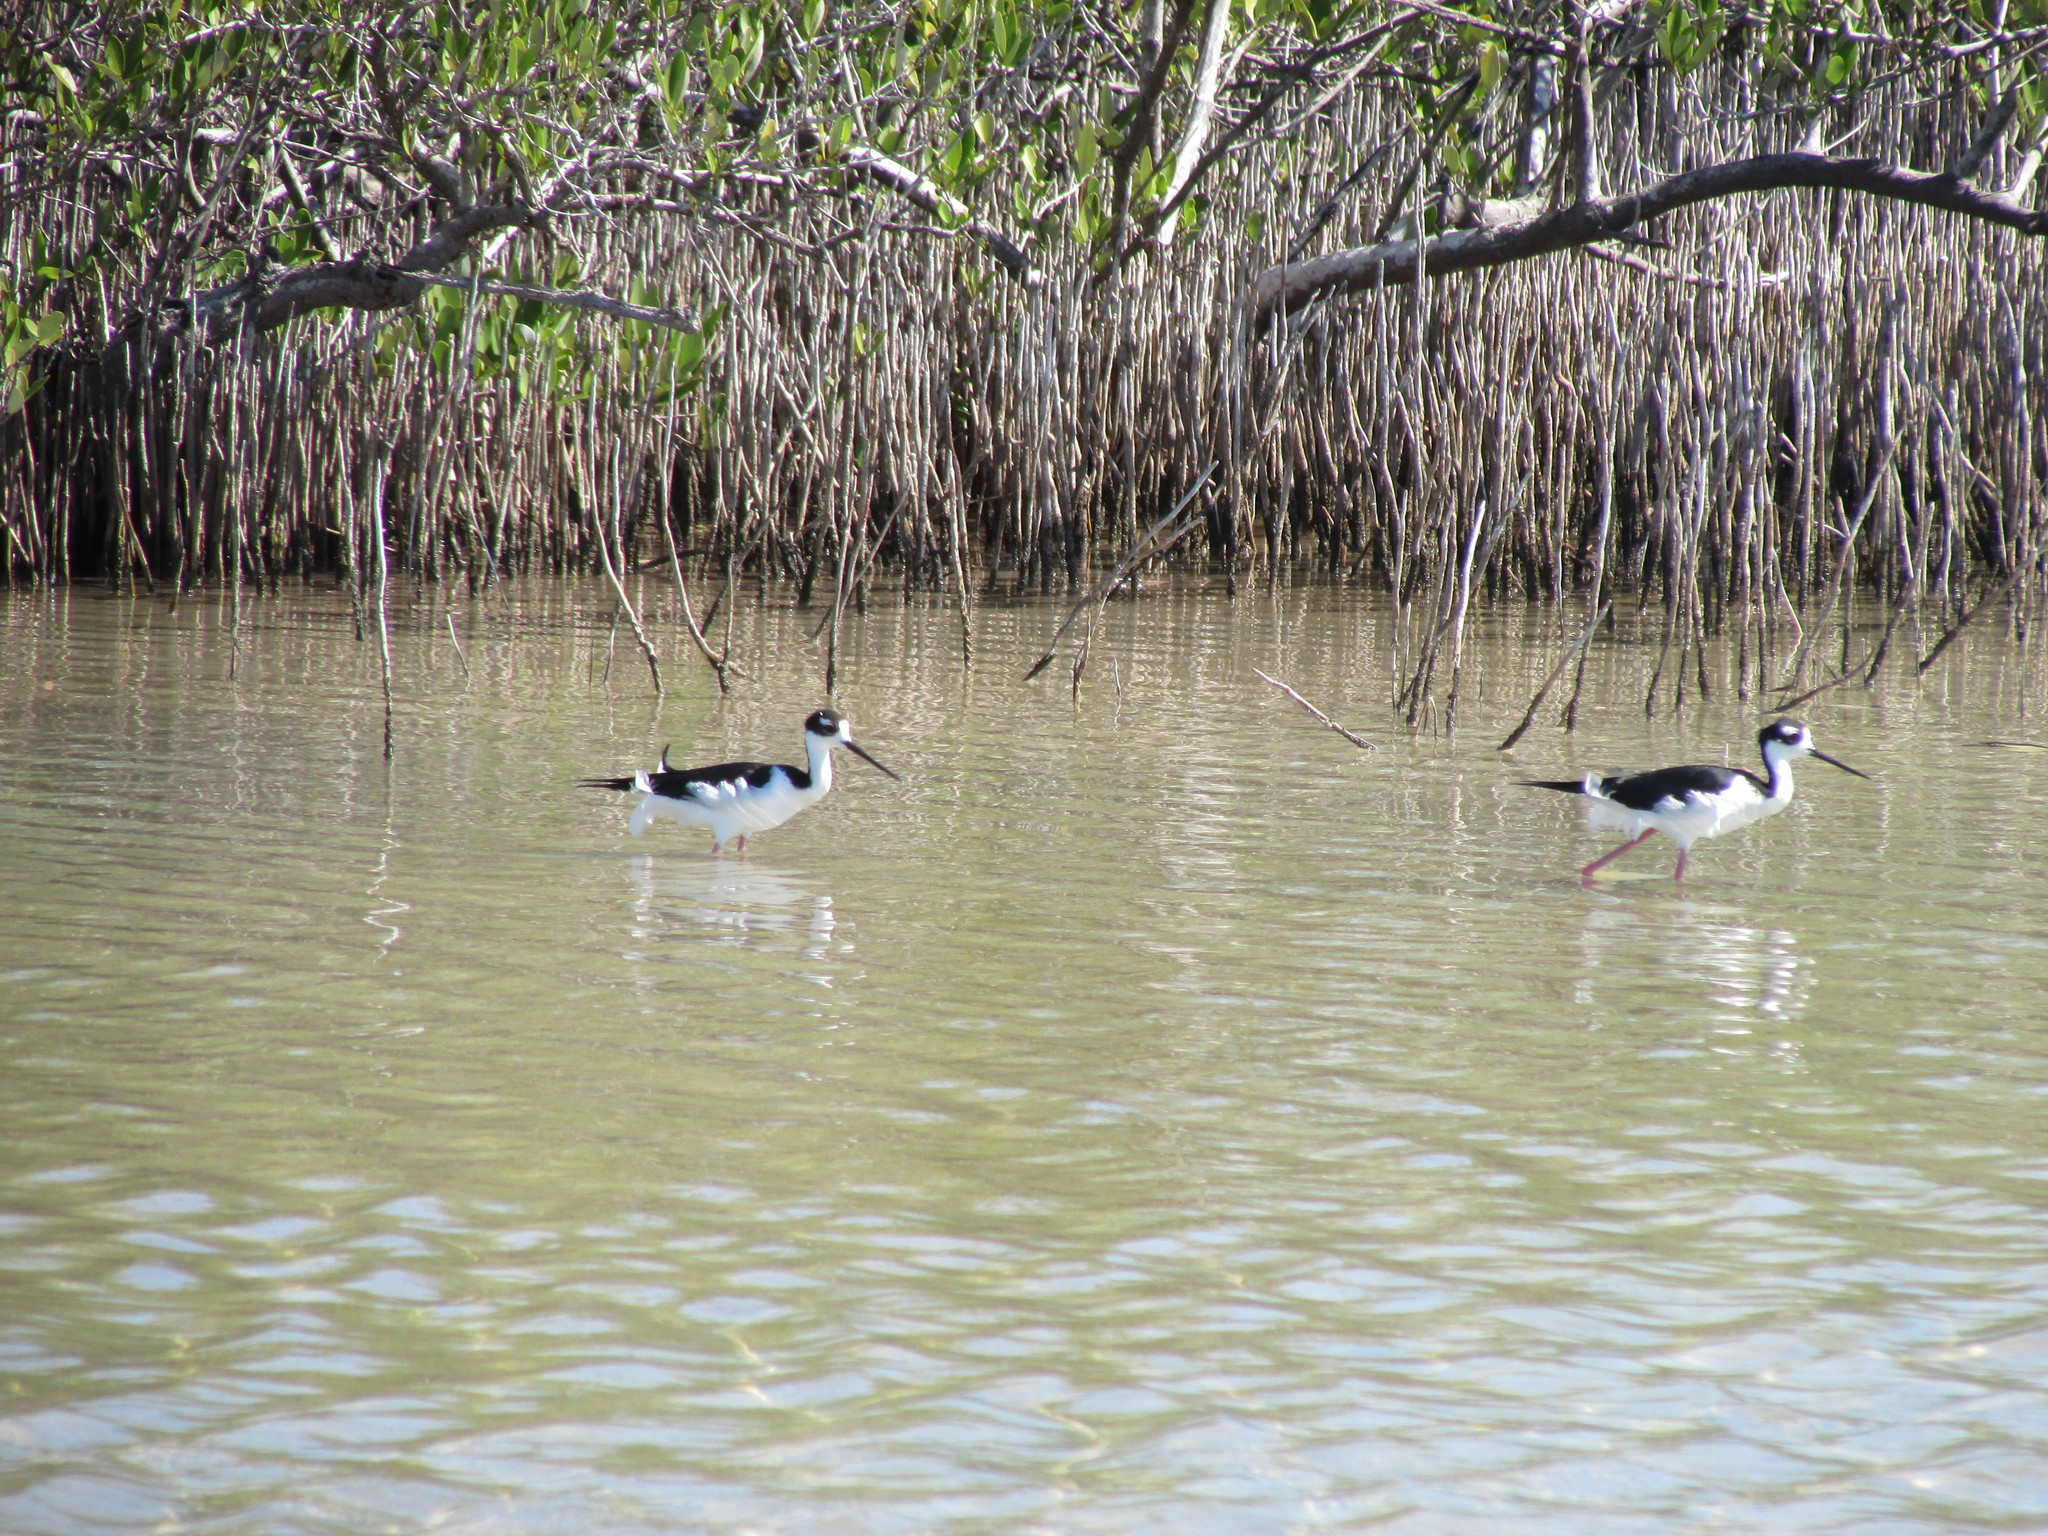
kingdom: Animalia
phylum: Chordata
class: Aves
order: Charadriiformes
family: Recurvirostridae
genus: Himantopus
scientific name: Himantopus mexicanus
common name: Black-necked stilt
